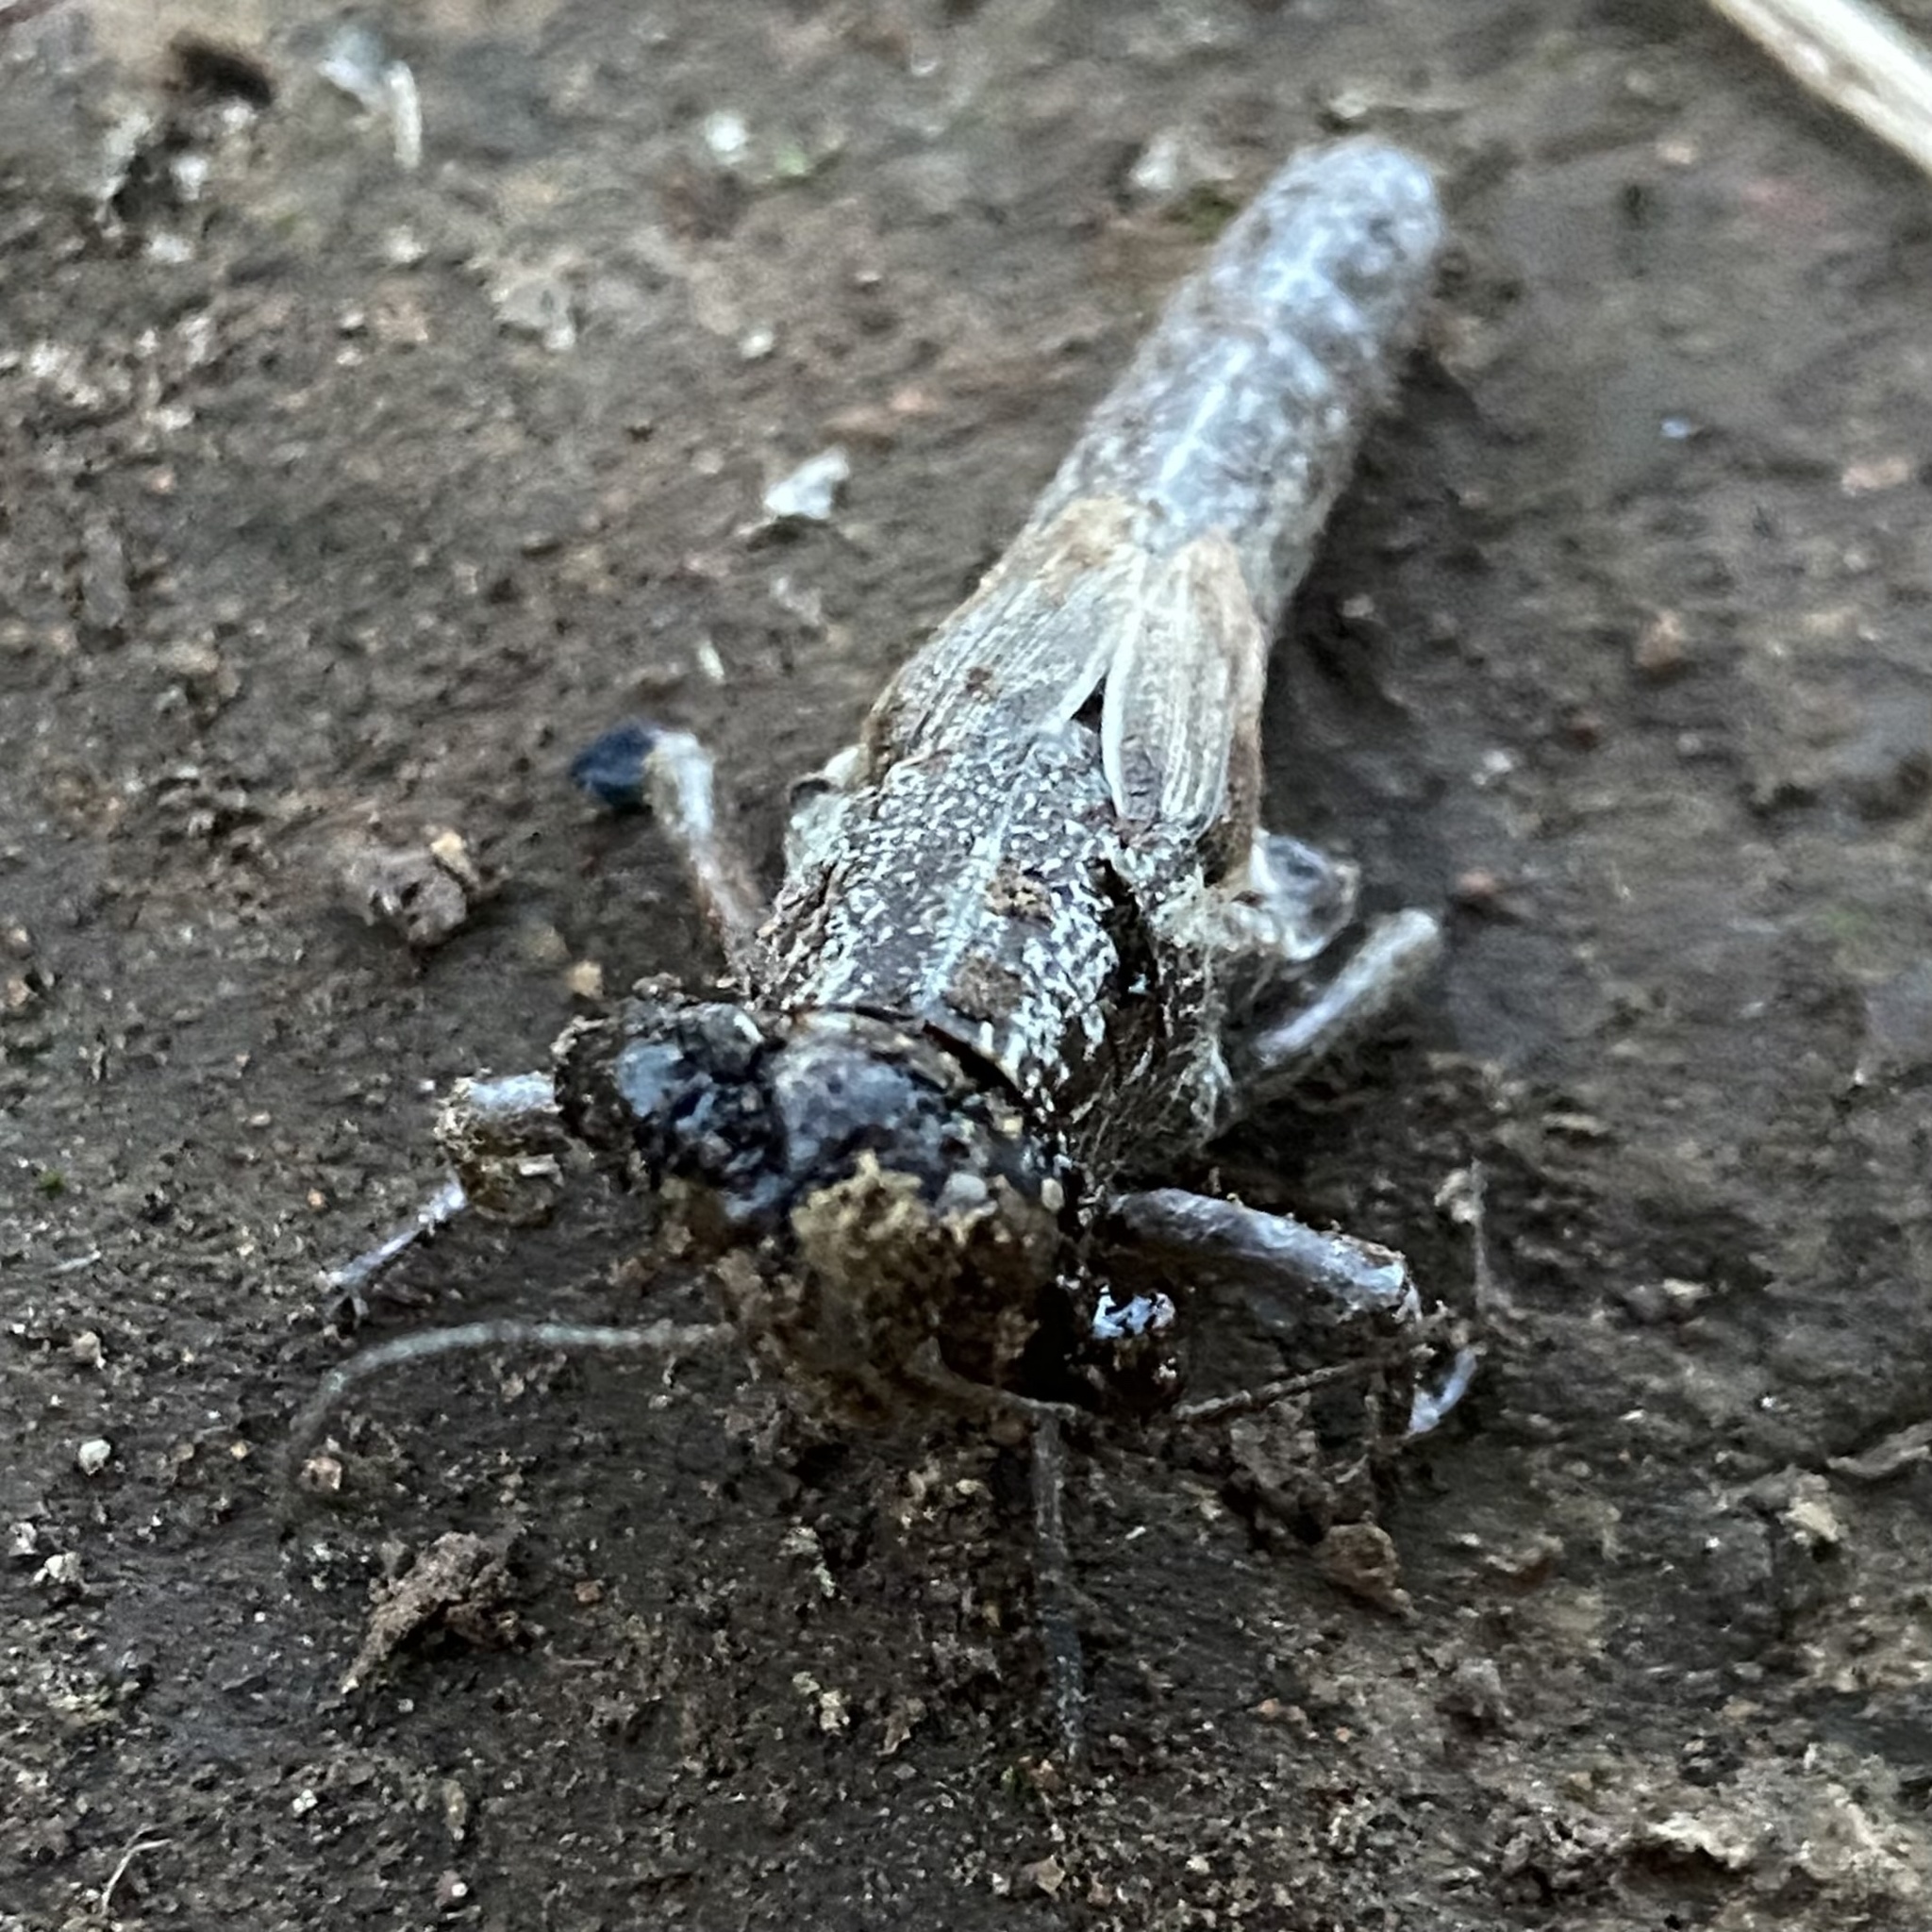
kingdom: Animalia
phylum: Arthropoda
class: Insecta
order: Orthoptera
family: Acrididae
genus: Campylacantha
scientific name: Campylacantha olivacea
